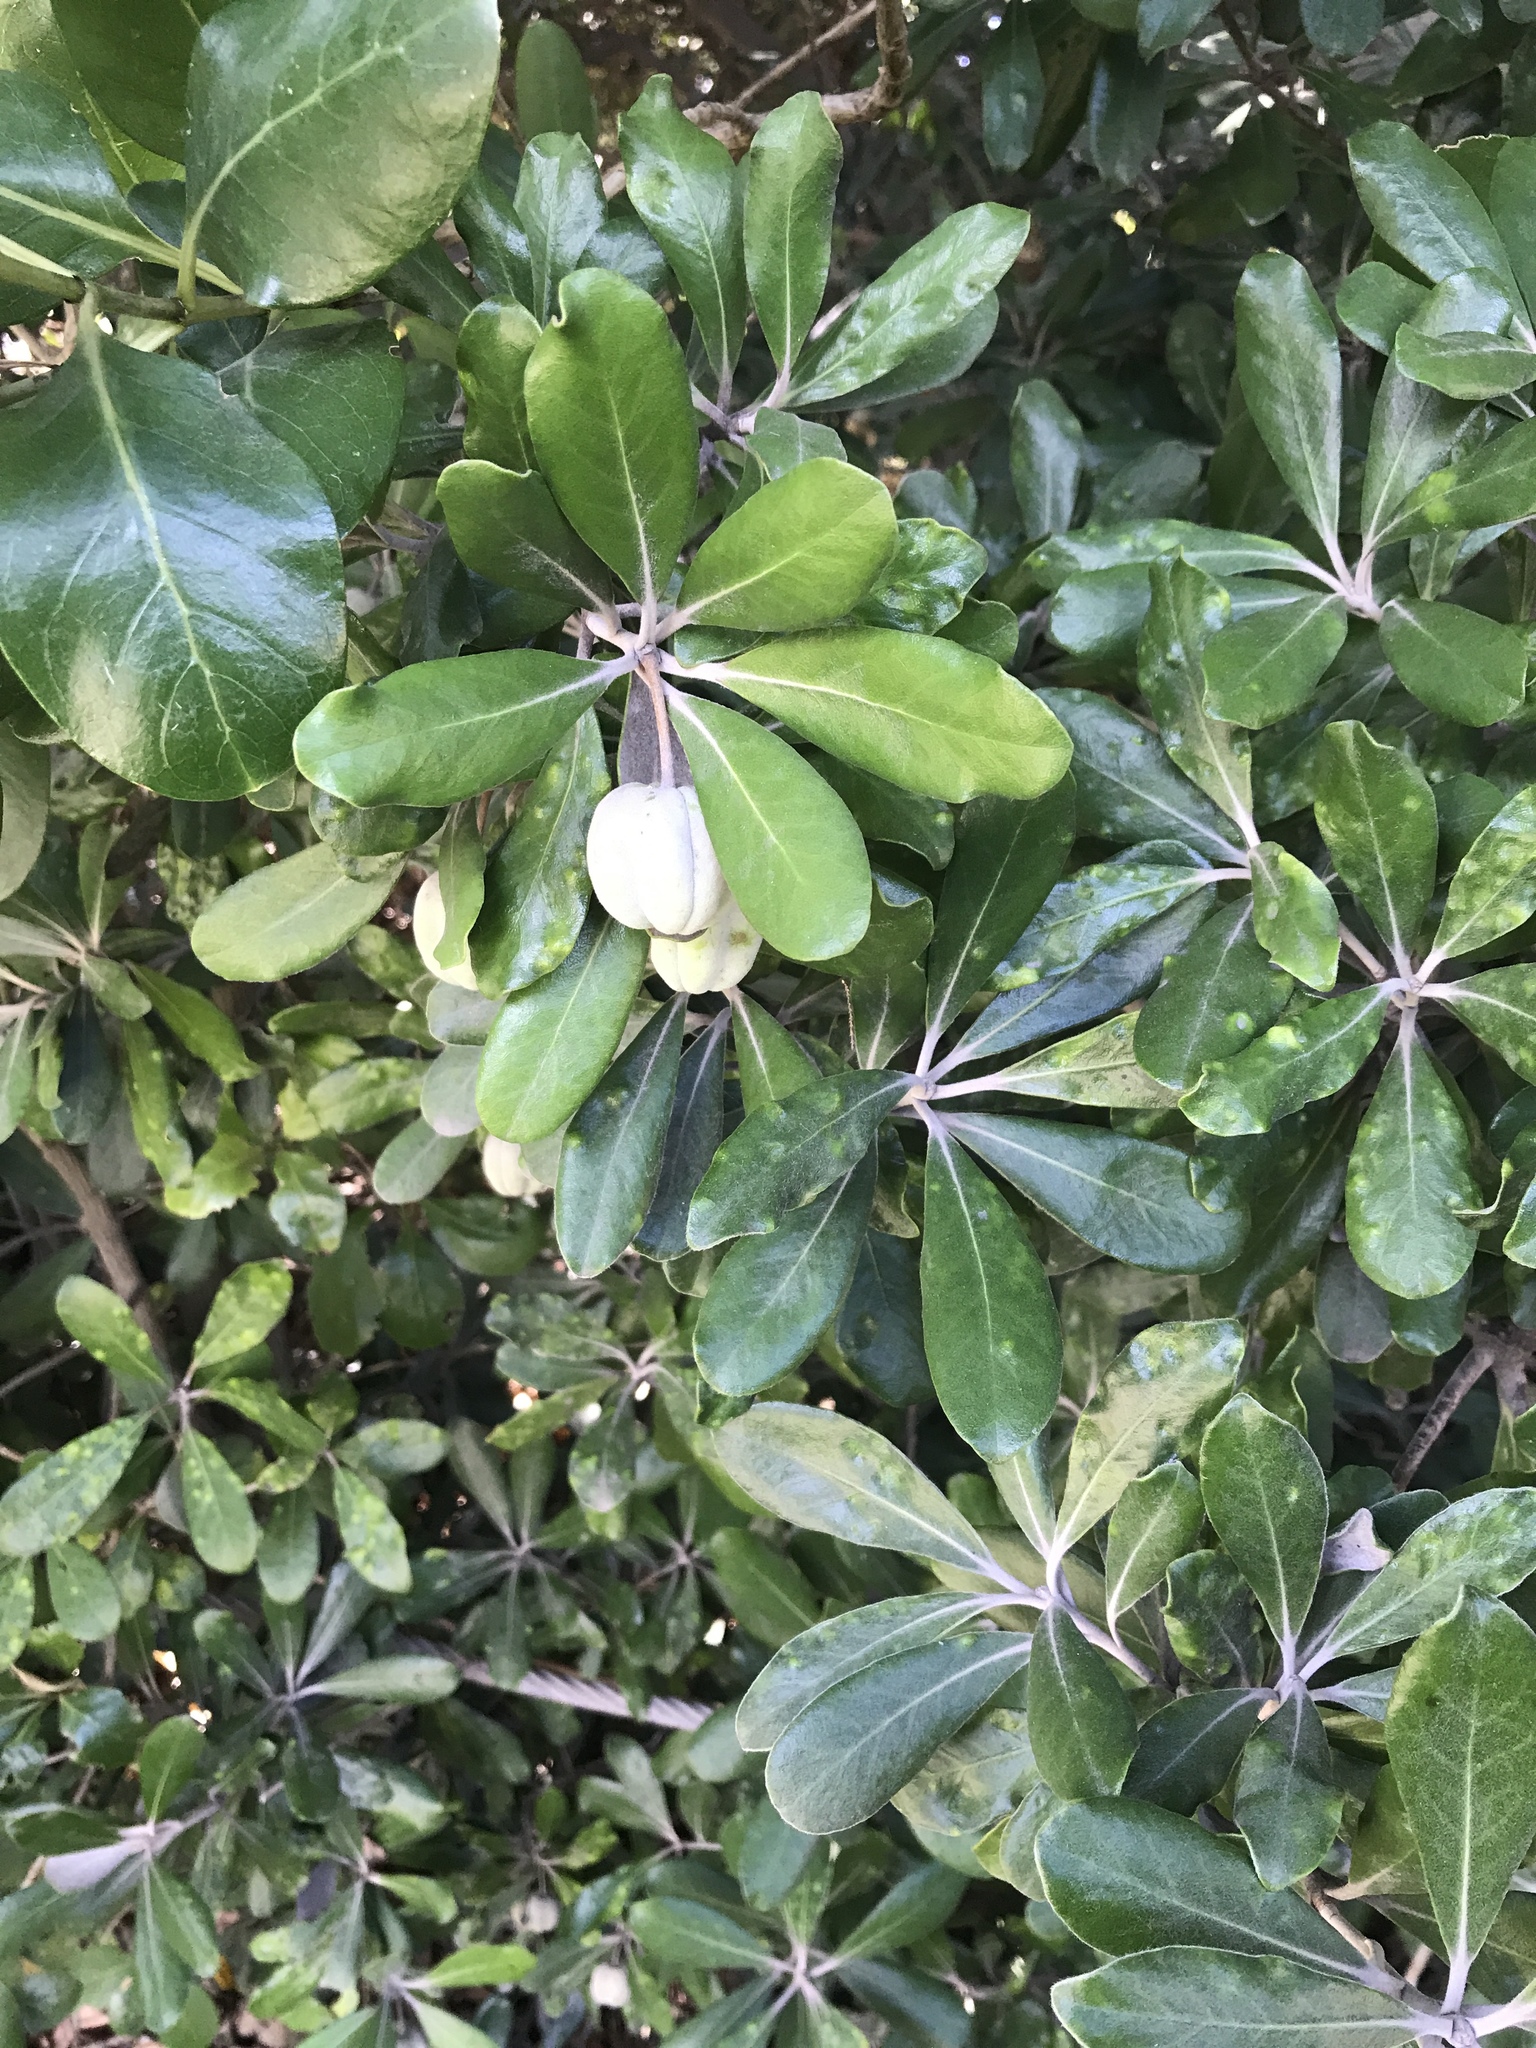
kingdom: Plantae
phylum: Tracheophyta
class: Magnoliopsida
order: Apiales
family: Pittosporaceae
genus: Pittosporum
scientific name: Pittosporum crassifolium
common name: Karo
